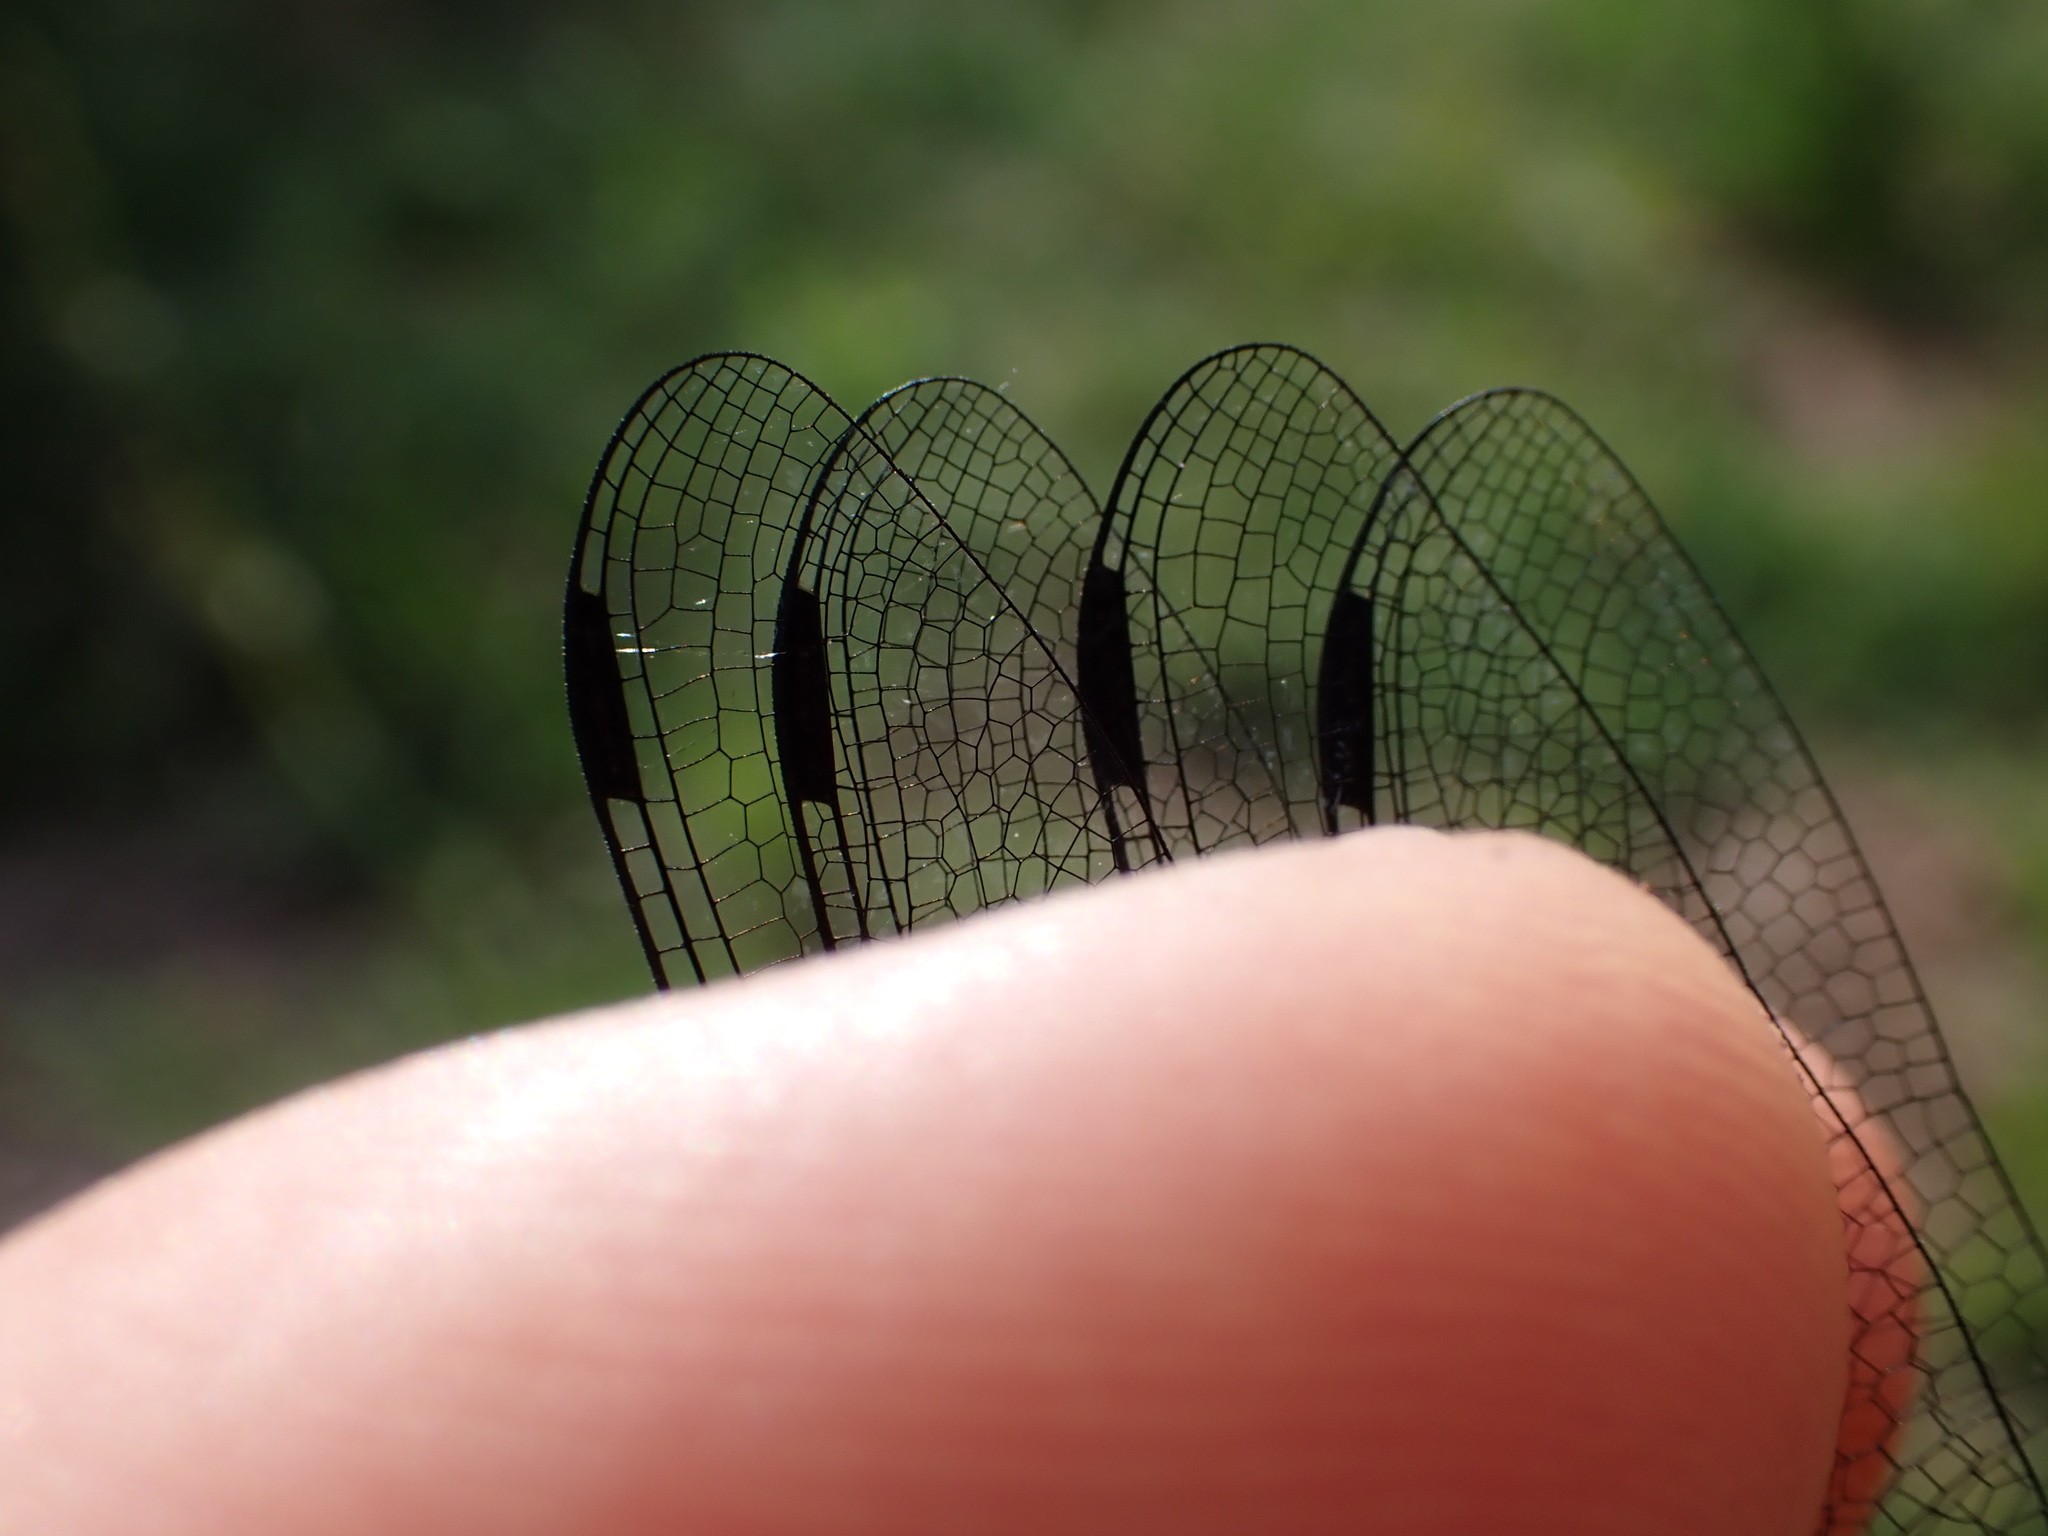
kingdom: Animalia
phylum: Arthropoda
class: Insecta
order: Odonata
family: Libellulidae
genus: Libellula
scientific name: Libellula depressa
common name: Broad-bodied chaser
